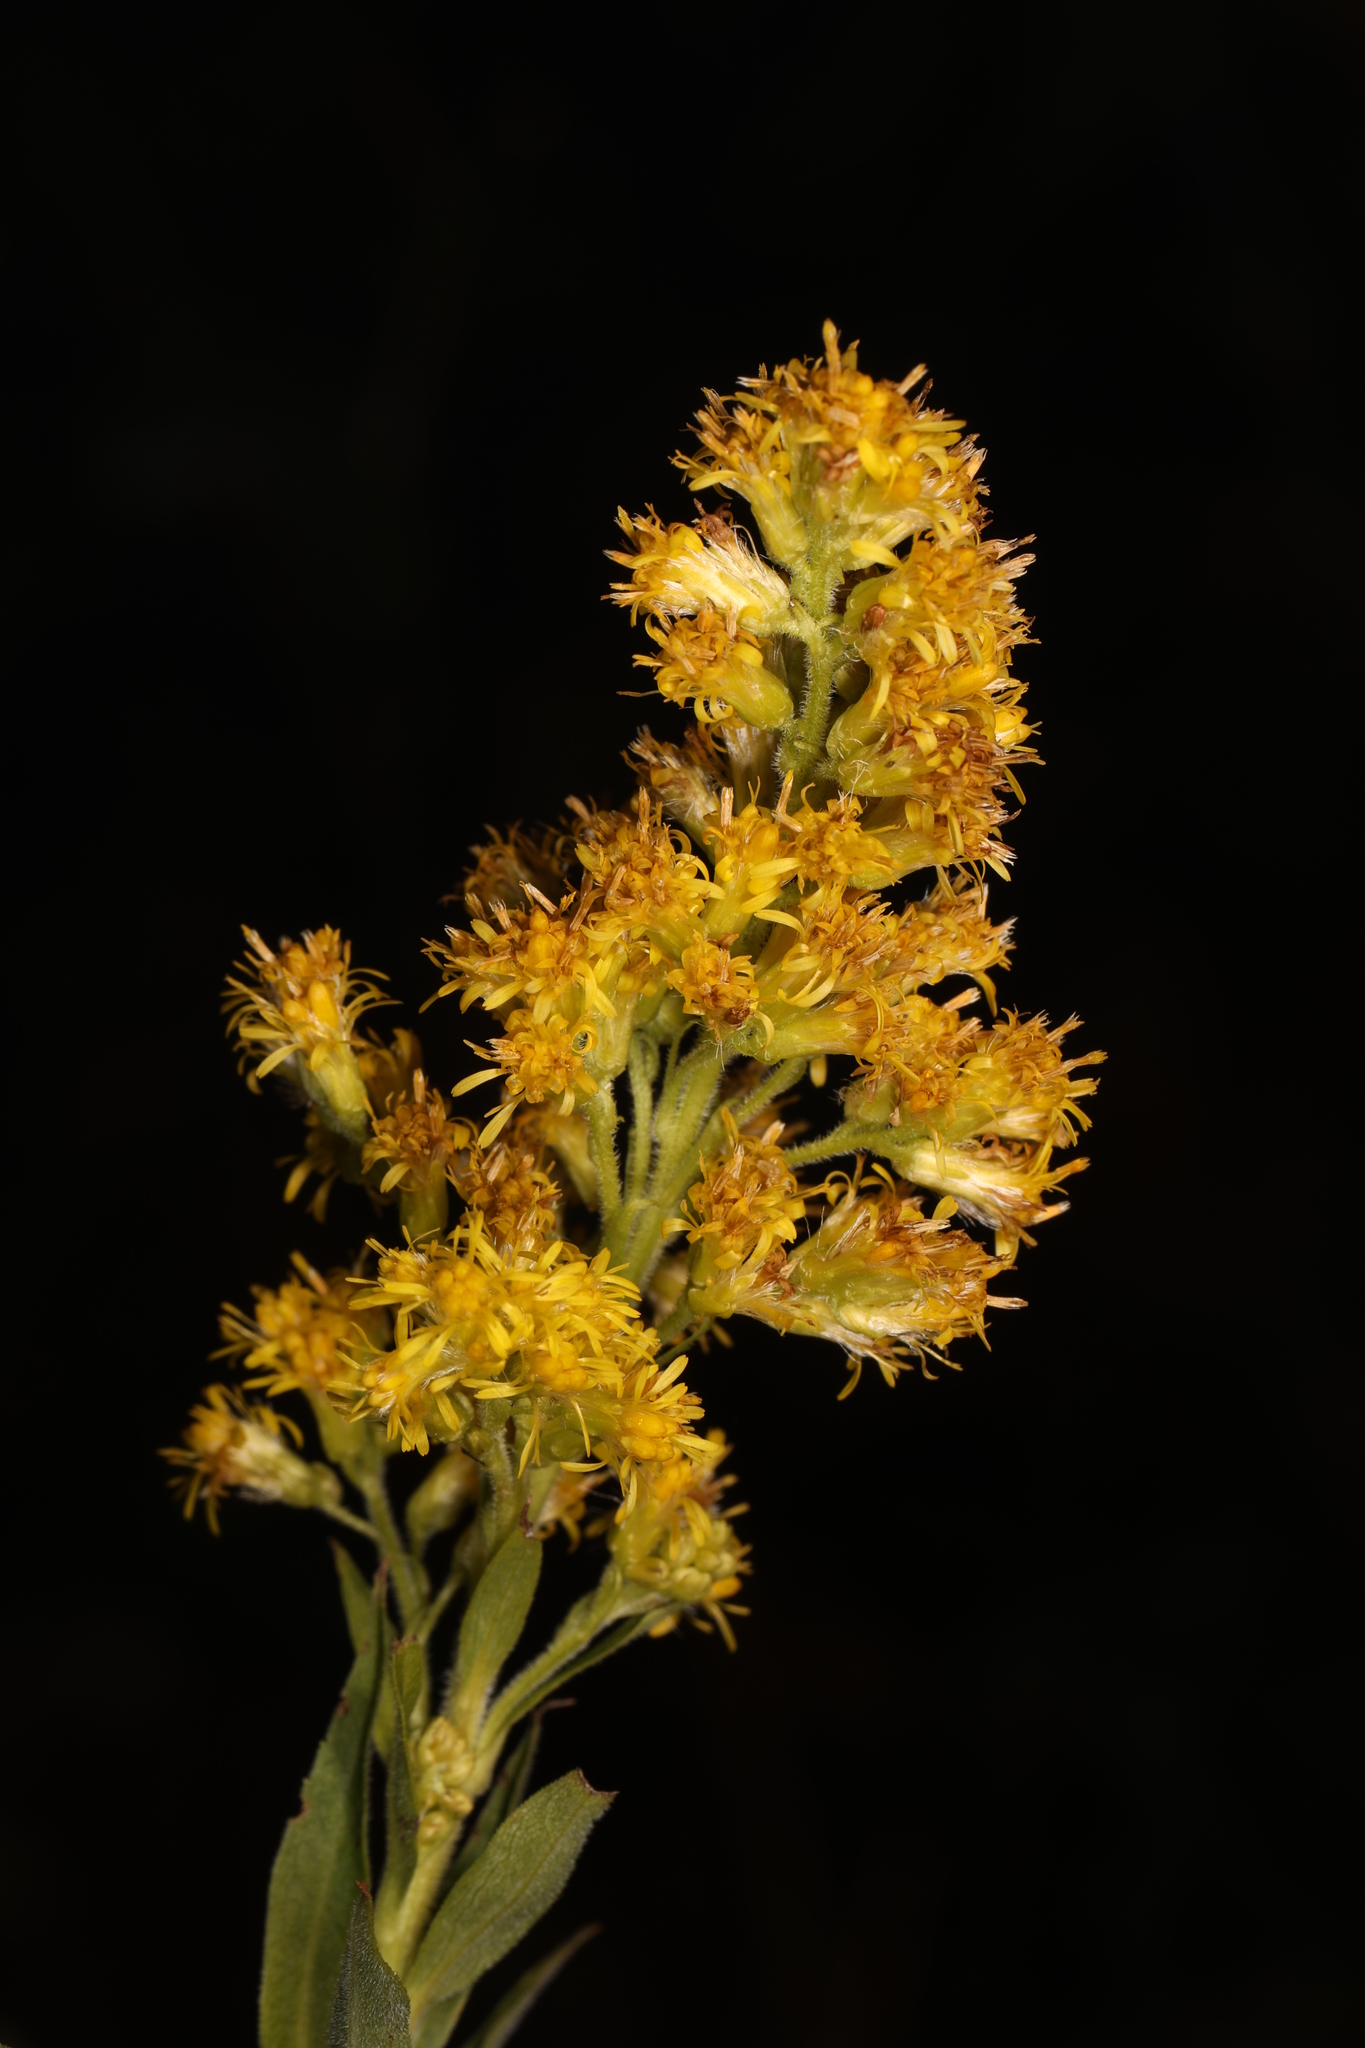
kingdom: Plantae
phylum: Tracheophyta
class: Magnoliopsida
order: Asterales
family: Asteraceae
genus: Solidago
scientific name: Solidago
